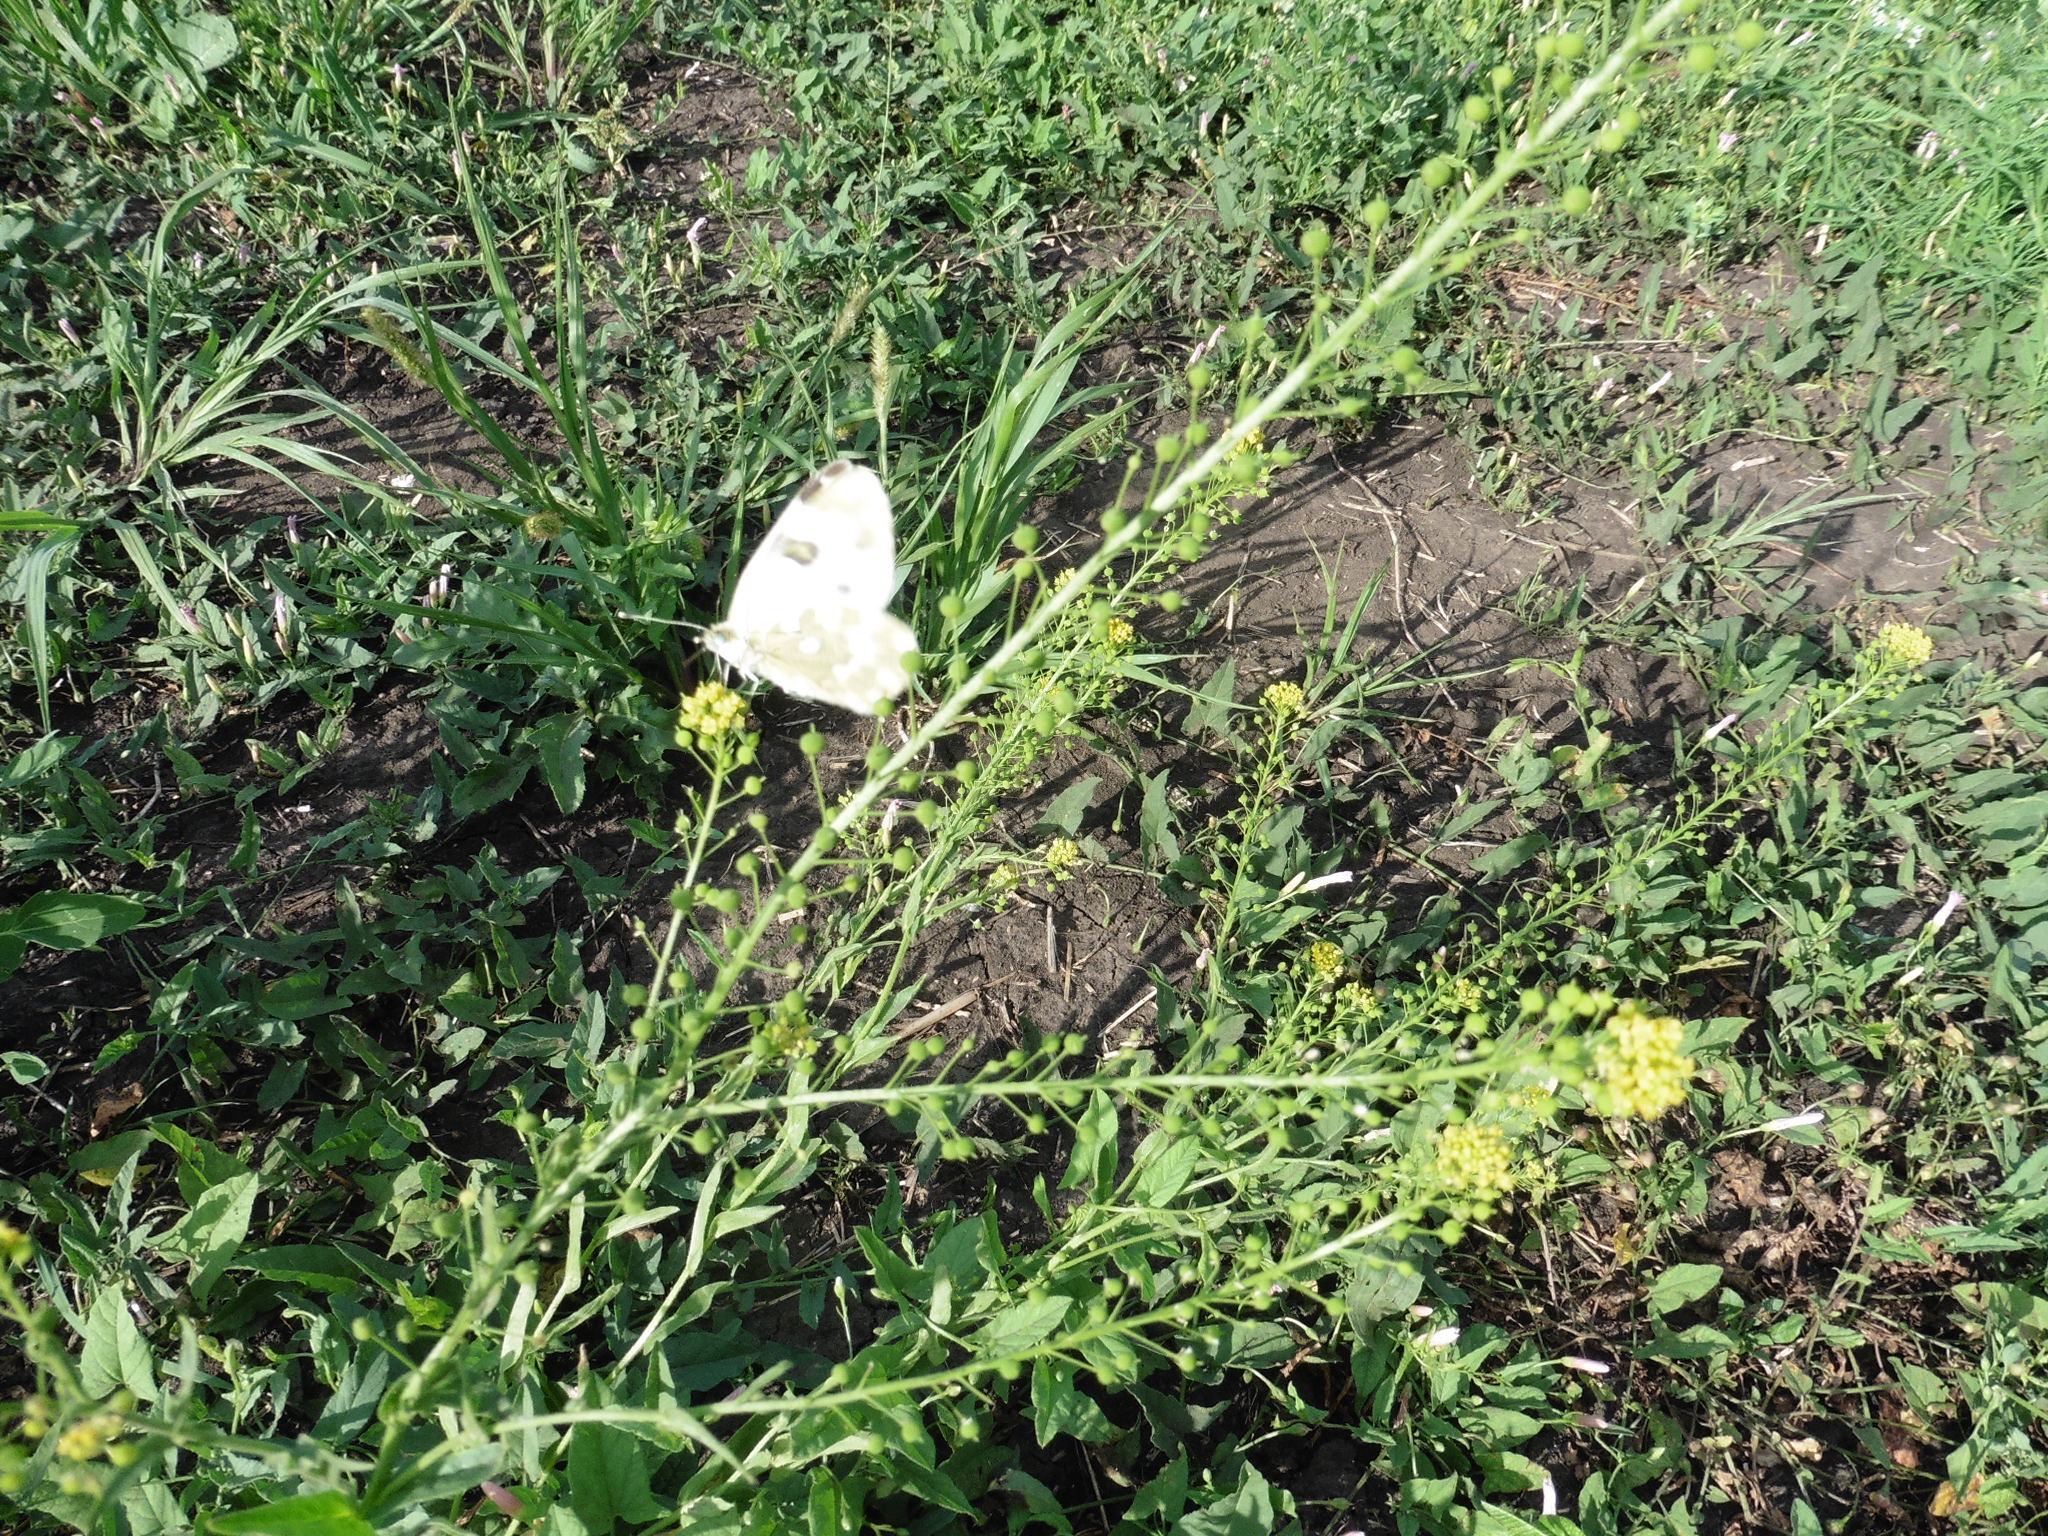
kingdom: Plantae
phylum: Tracheophyta
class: Magnoliopsida
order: Brassicales
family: Brassicaceae
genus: Neslia
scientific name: Neslia paniculata
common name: Ball mustard
